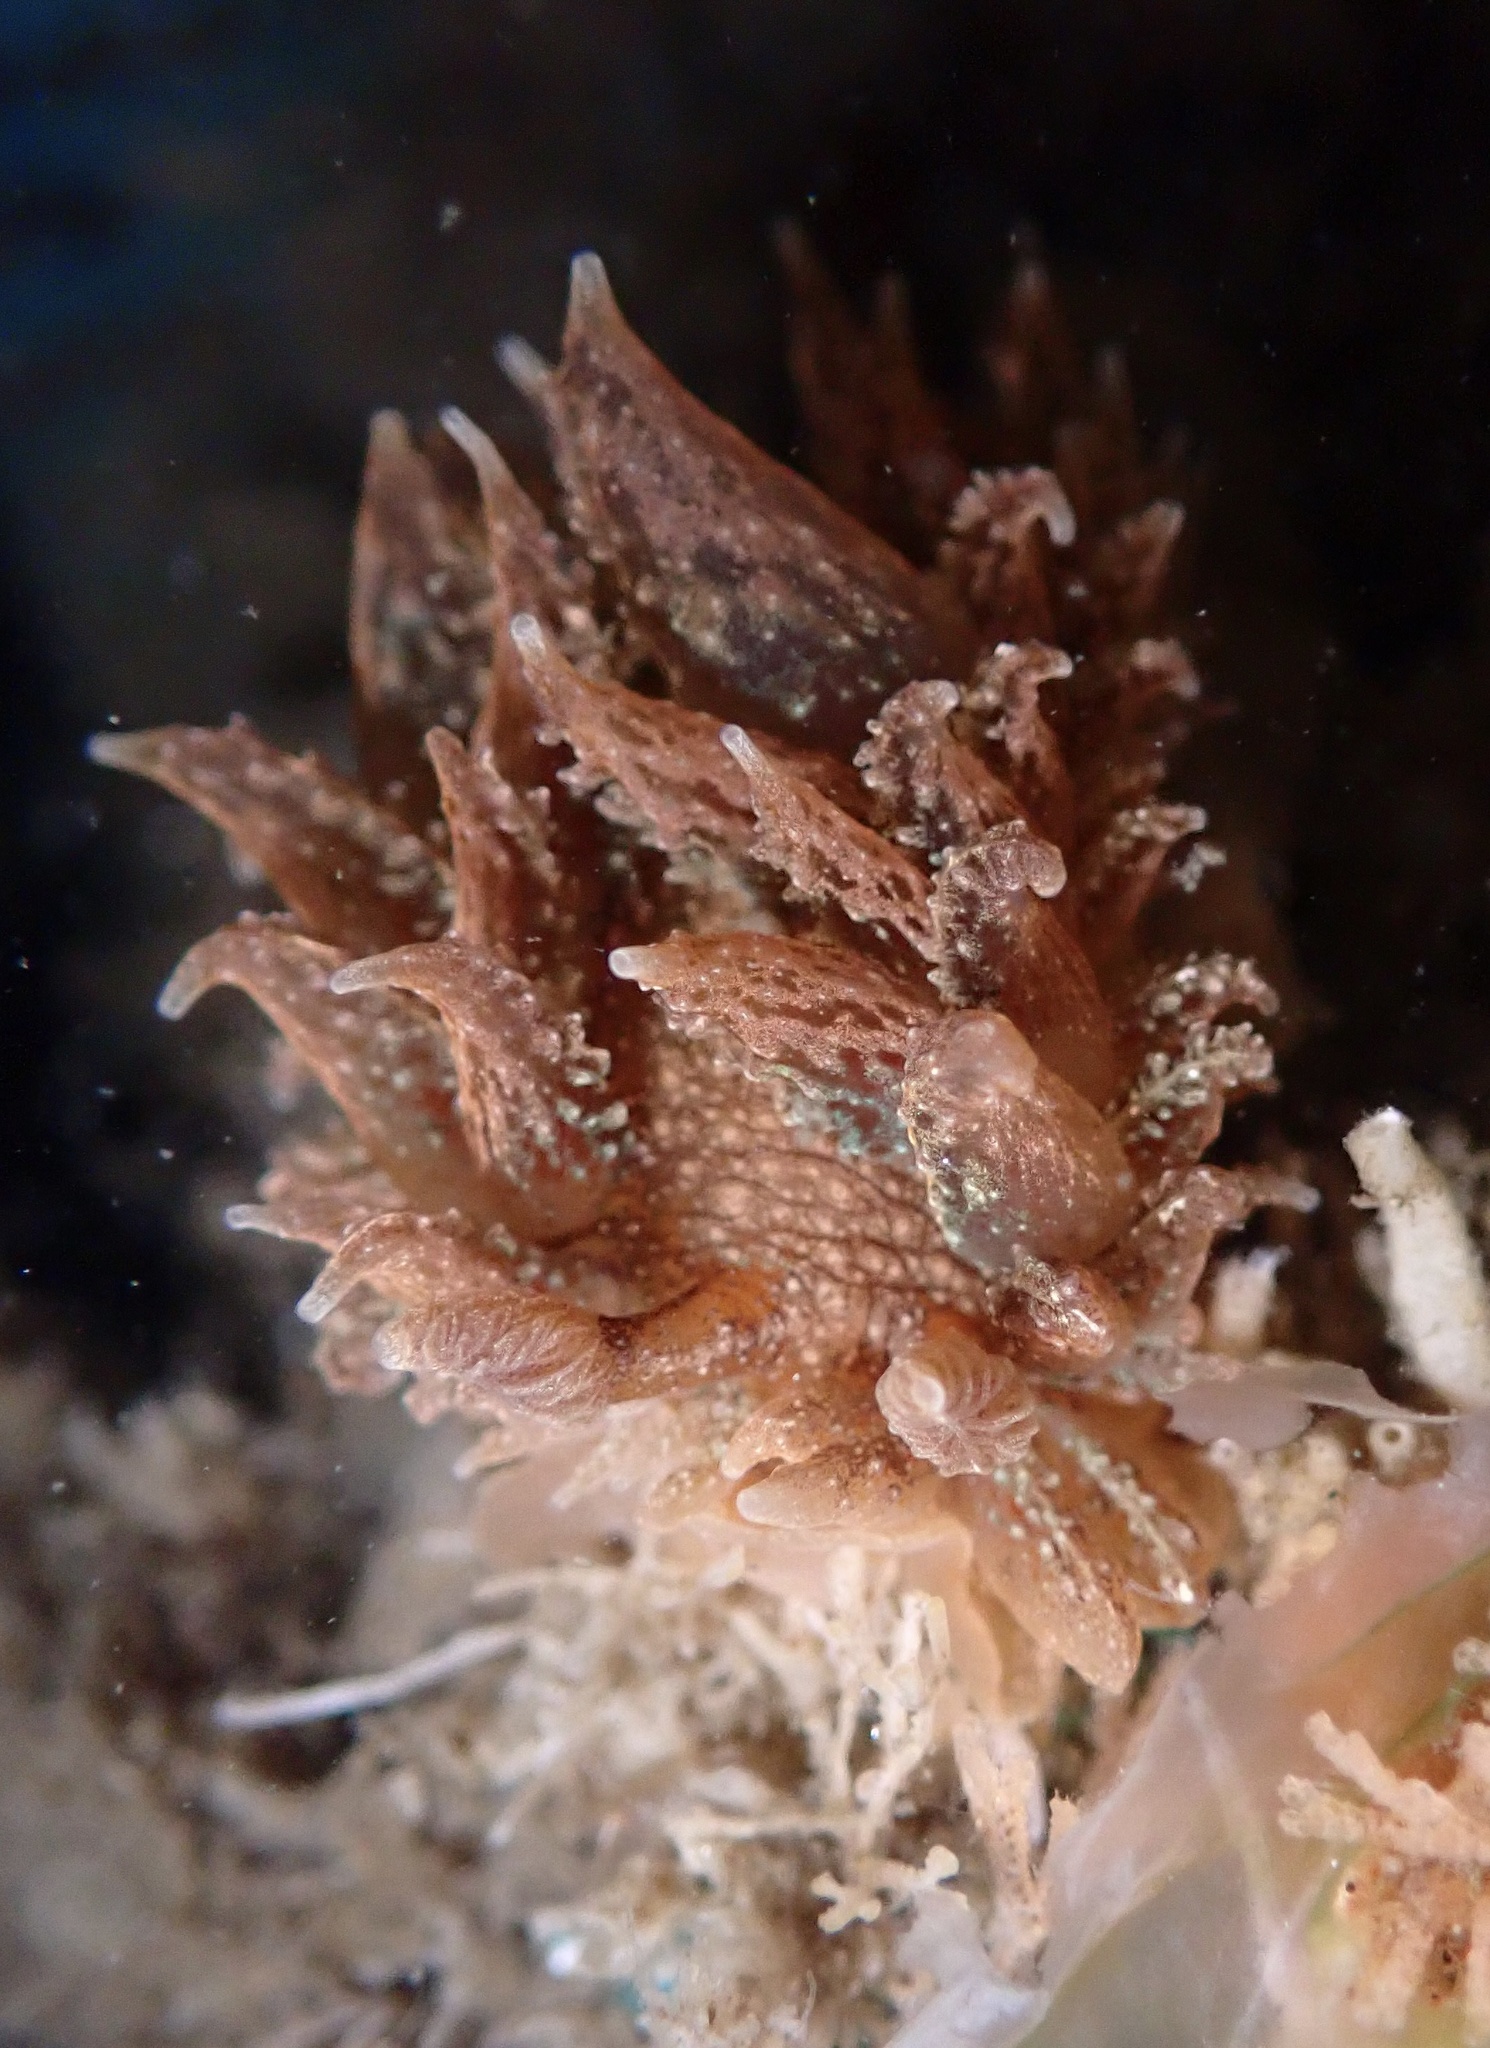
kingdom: Animalia
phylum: Mollusca
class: Gastropoda
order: Nudibranchia
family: Dironidae
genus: Dirona
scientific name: Dirona picta
